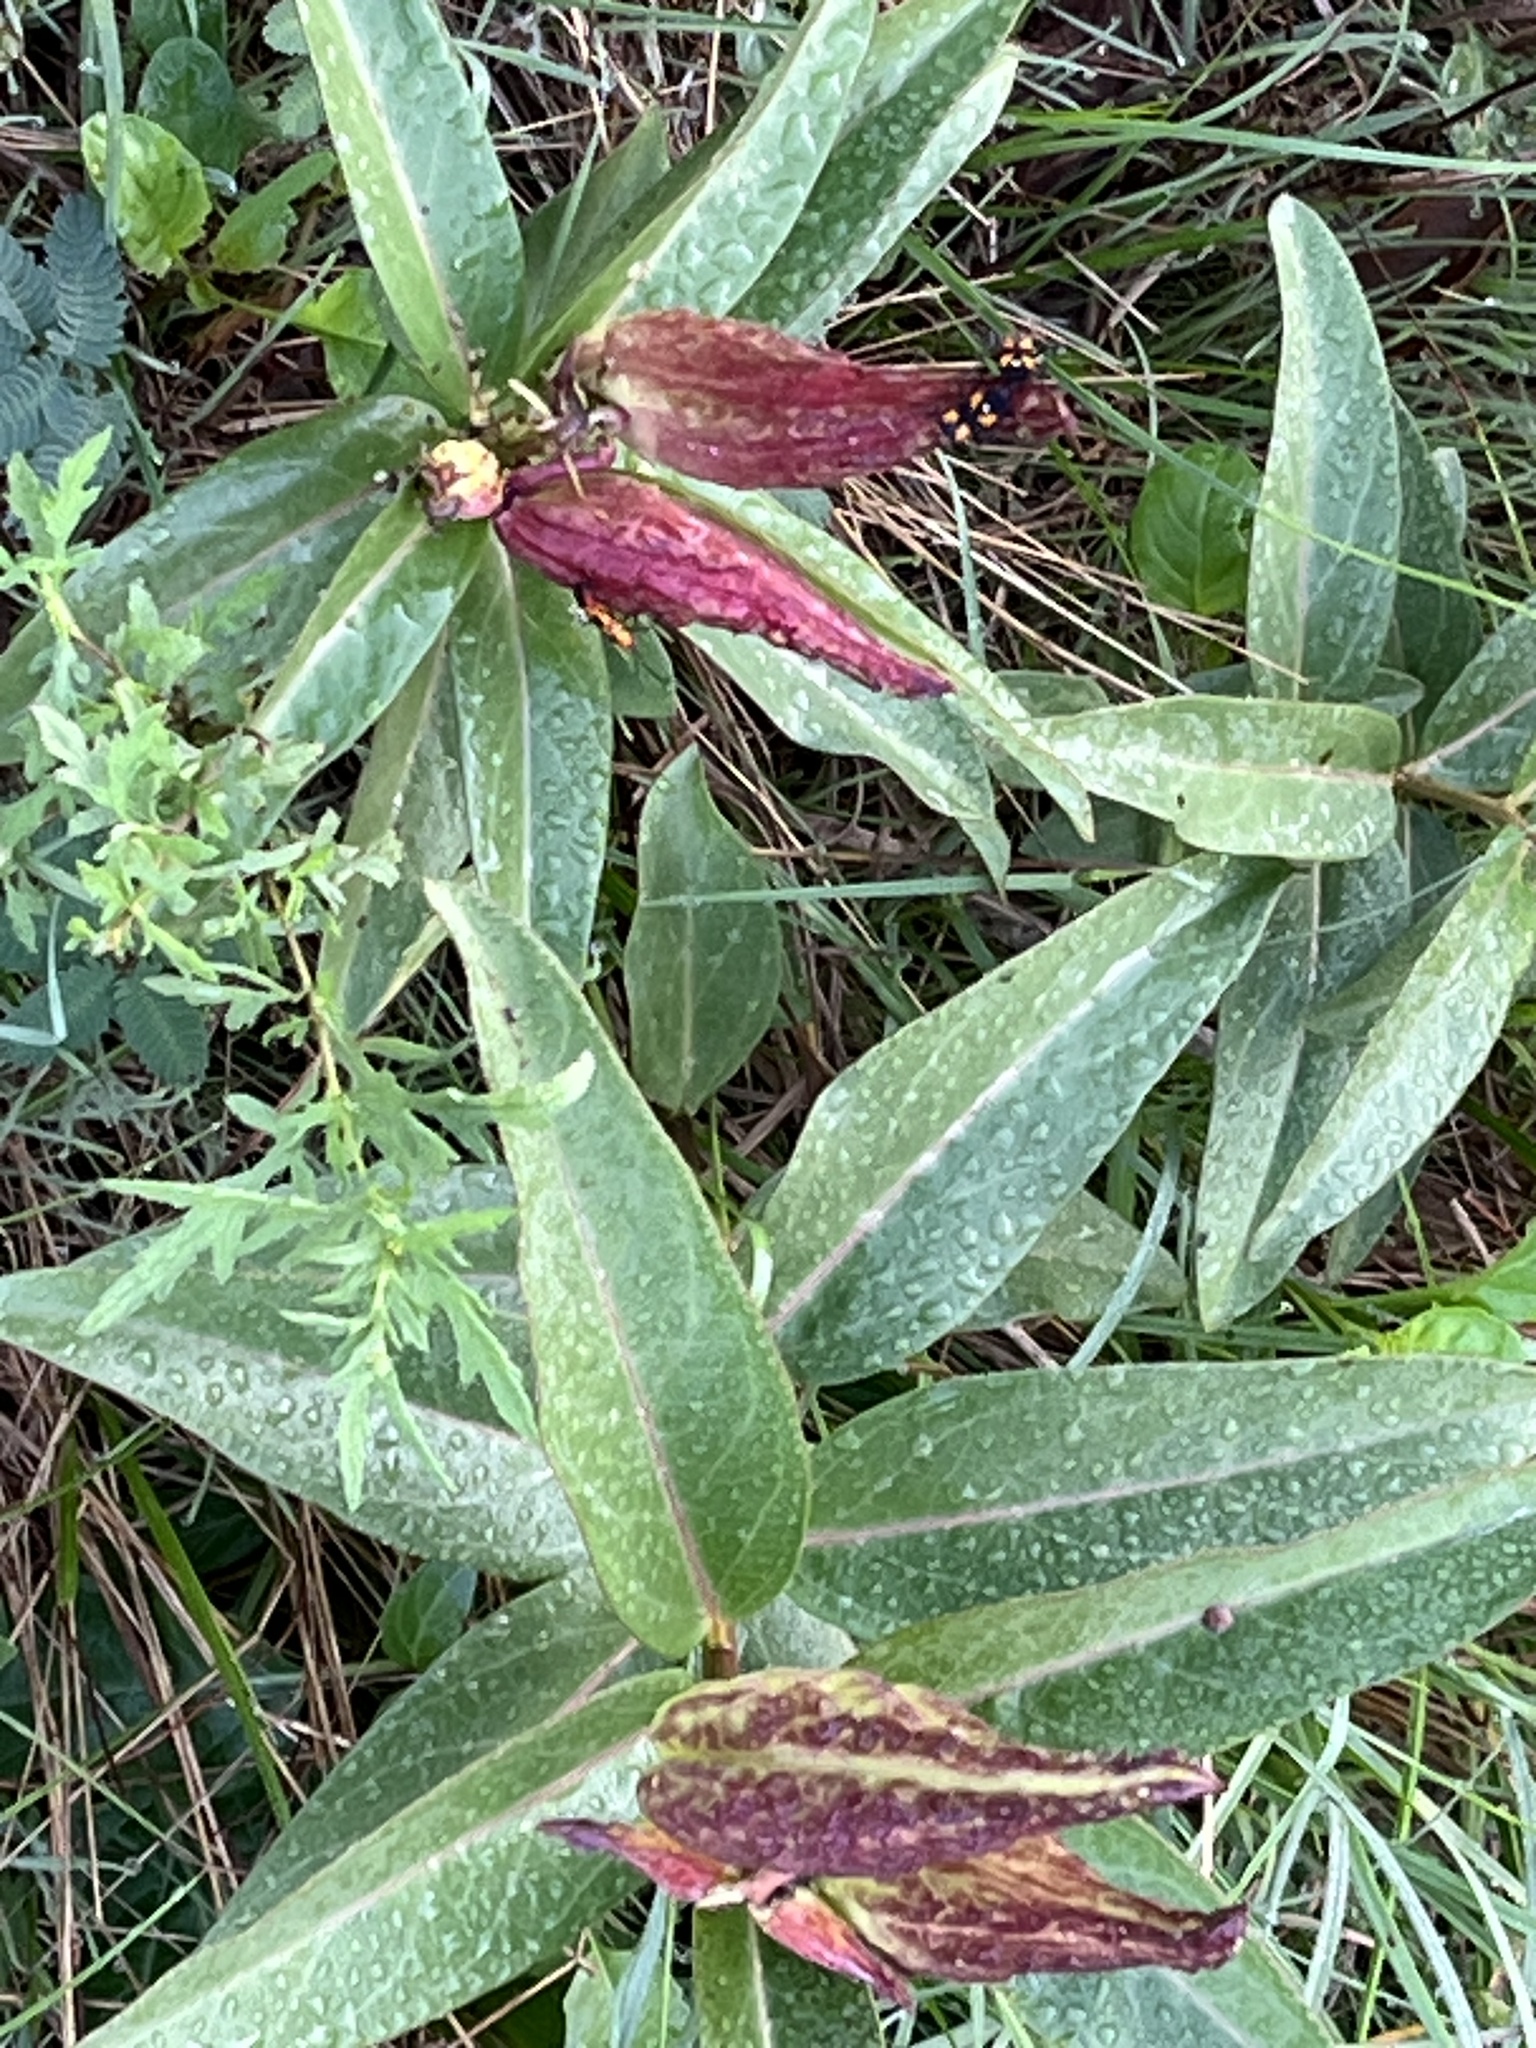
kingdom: Plantae
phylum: Tracheophyta
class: Magnoliopsida
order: Gentianales
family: Apocynaceae
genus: Asclepias
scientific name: Asclepias viridis
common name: Antelope-horns
